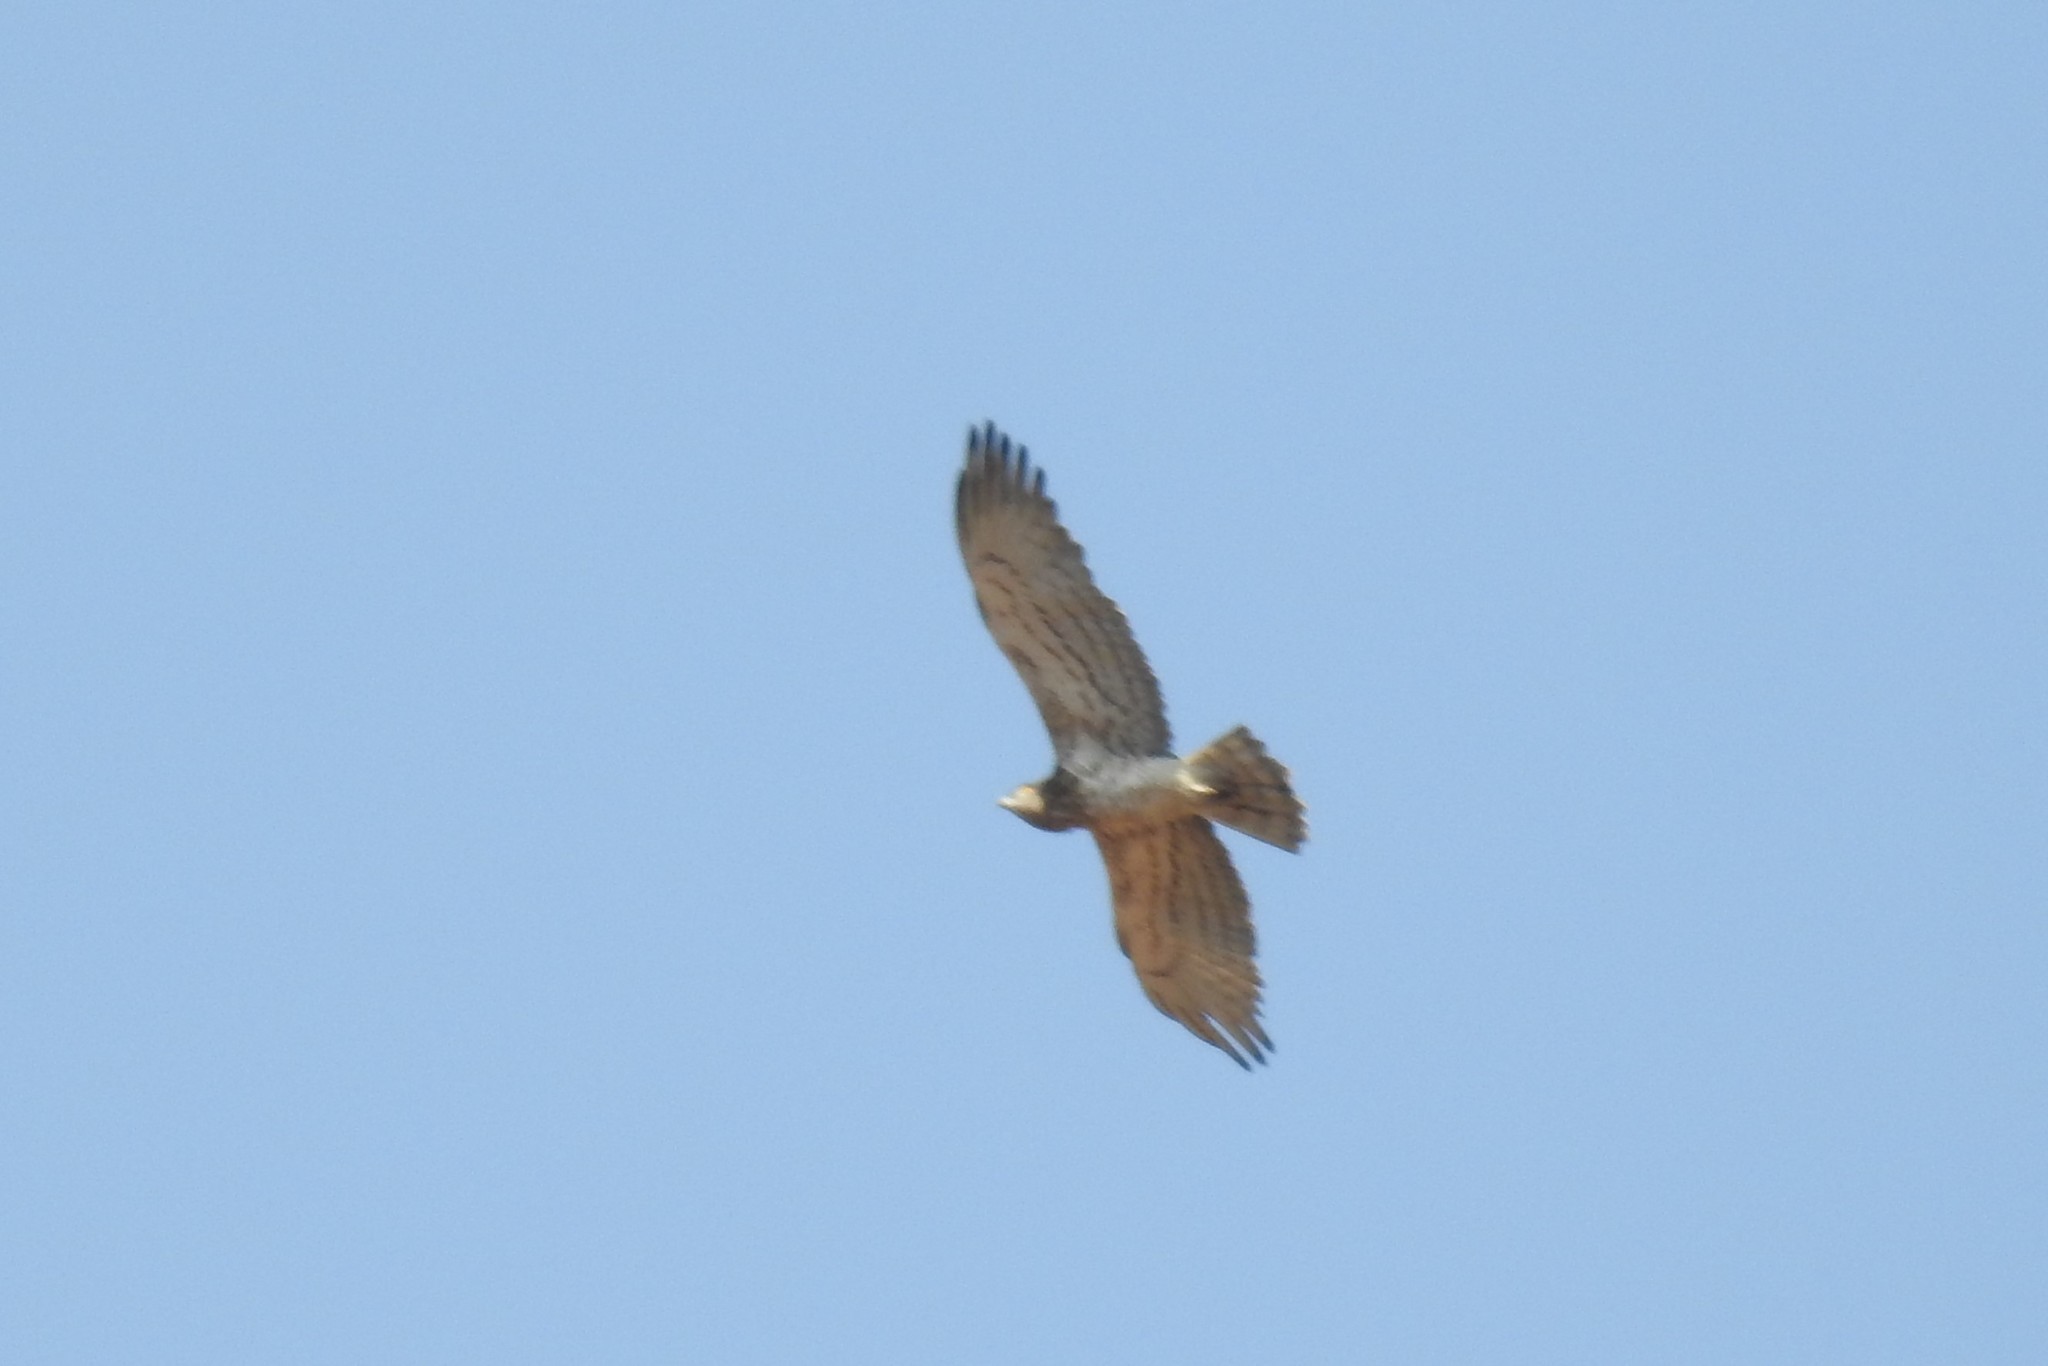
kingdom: Animalia
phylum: Chordata
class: Aves
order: Accipitriformes
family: Accipitridae
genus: Circaetus
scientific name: Circaetus gallicus
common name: Short-toed snake eagle
